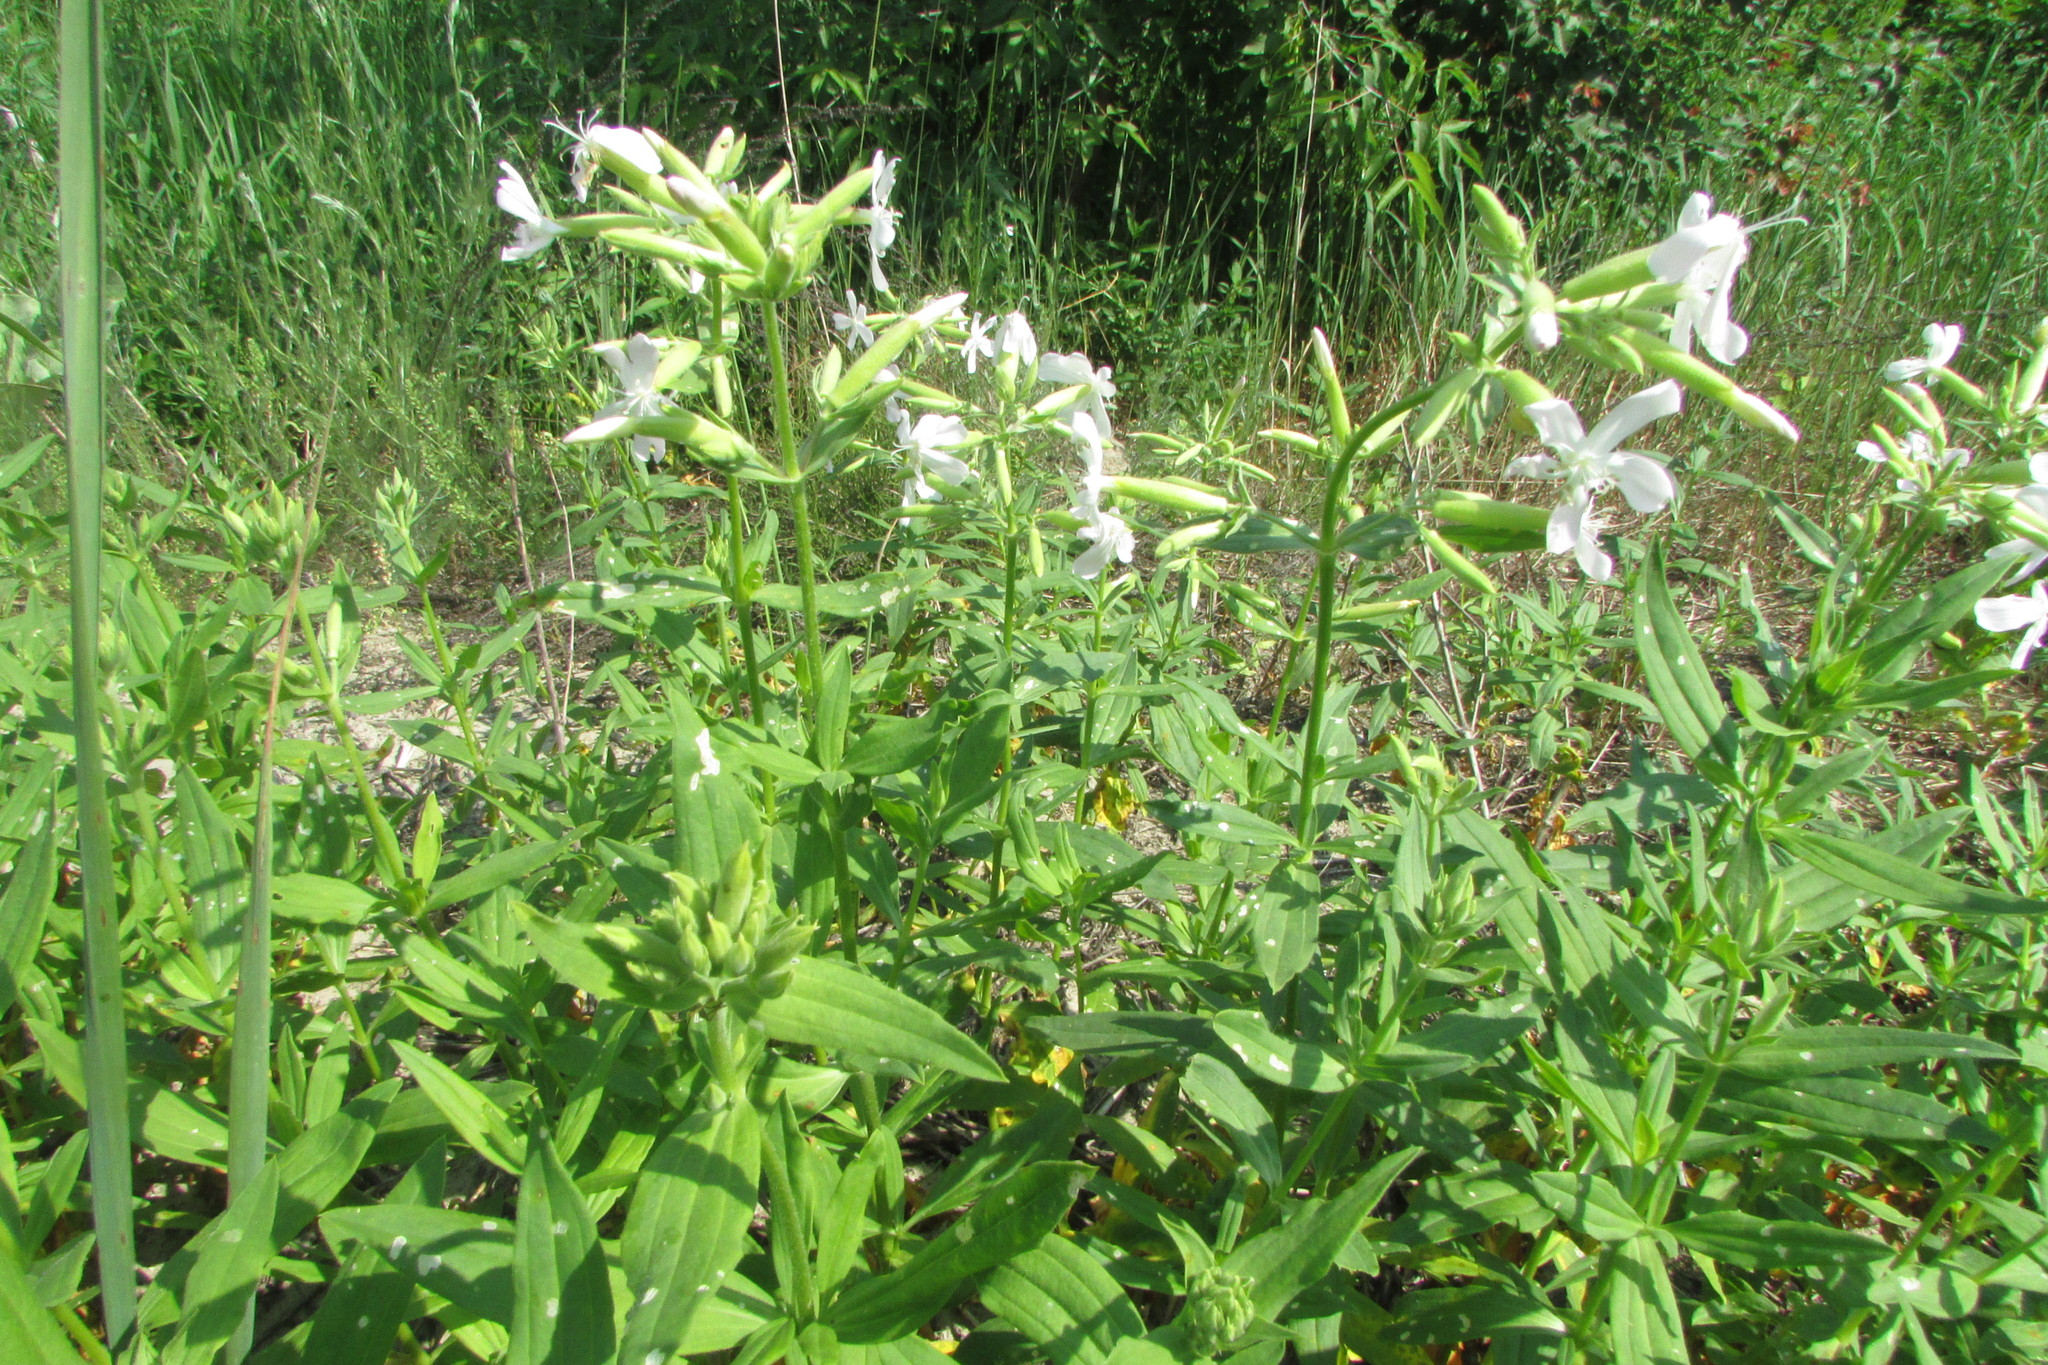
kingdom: Plantae
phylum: Tracheophyta
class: Magnoliopsida
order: Caryophyllales
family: Caryophyllaceae
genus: Saponaria
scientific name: Saponaria officinalis
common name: Soapwort
